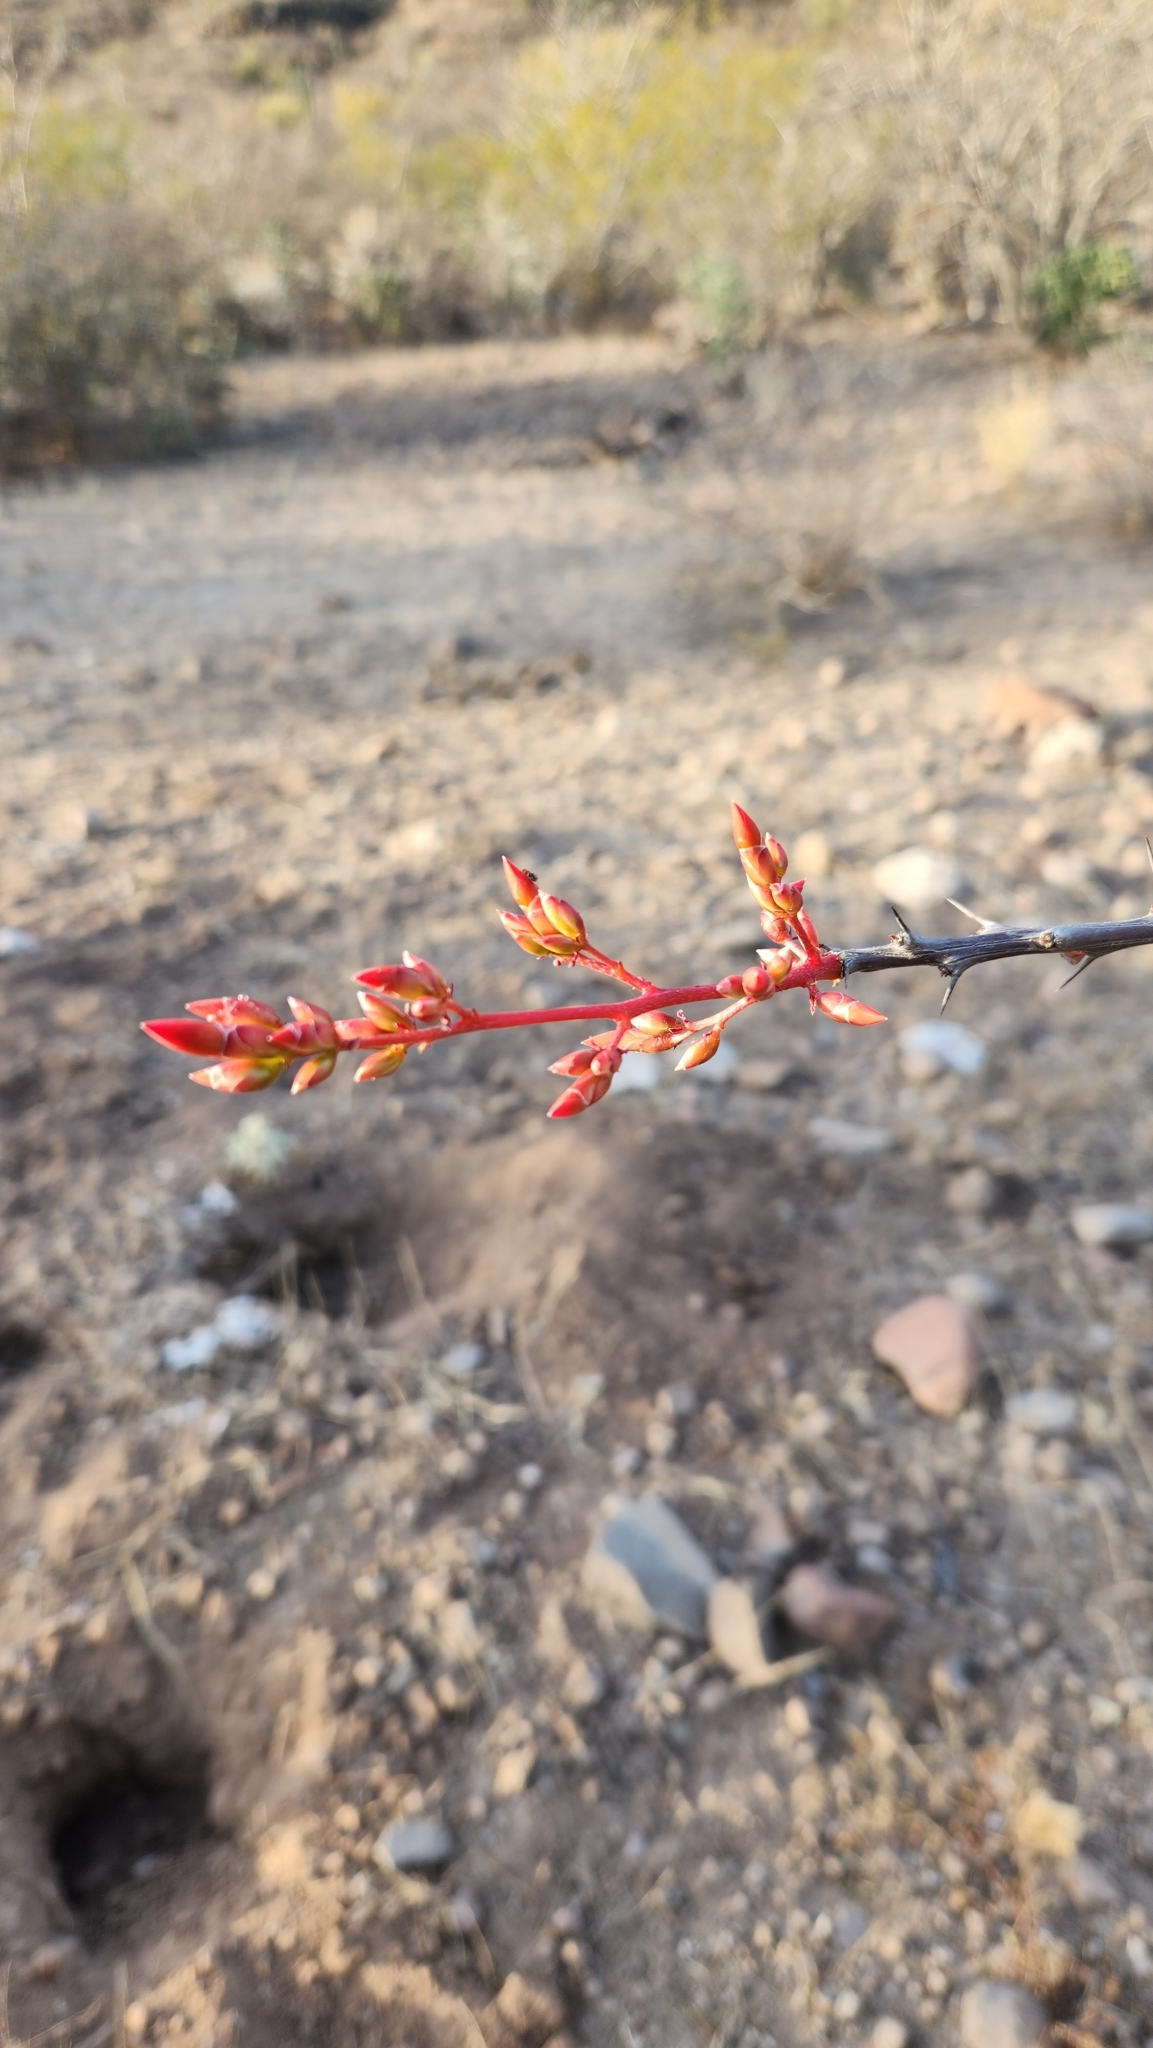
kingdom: Plantae
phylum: Tracheophyta
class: Magnoliopsida
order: Ericales
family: Fouquieriaceae
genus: Fouquieria
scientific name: Fouquieria diguetii
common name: Adam's tree
